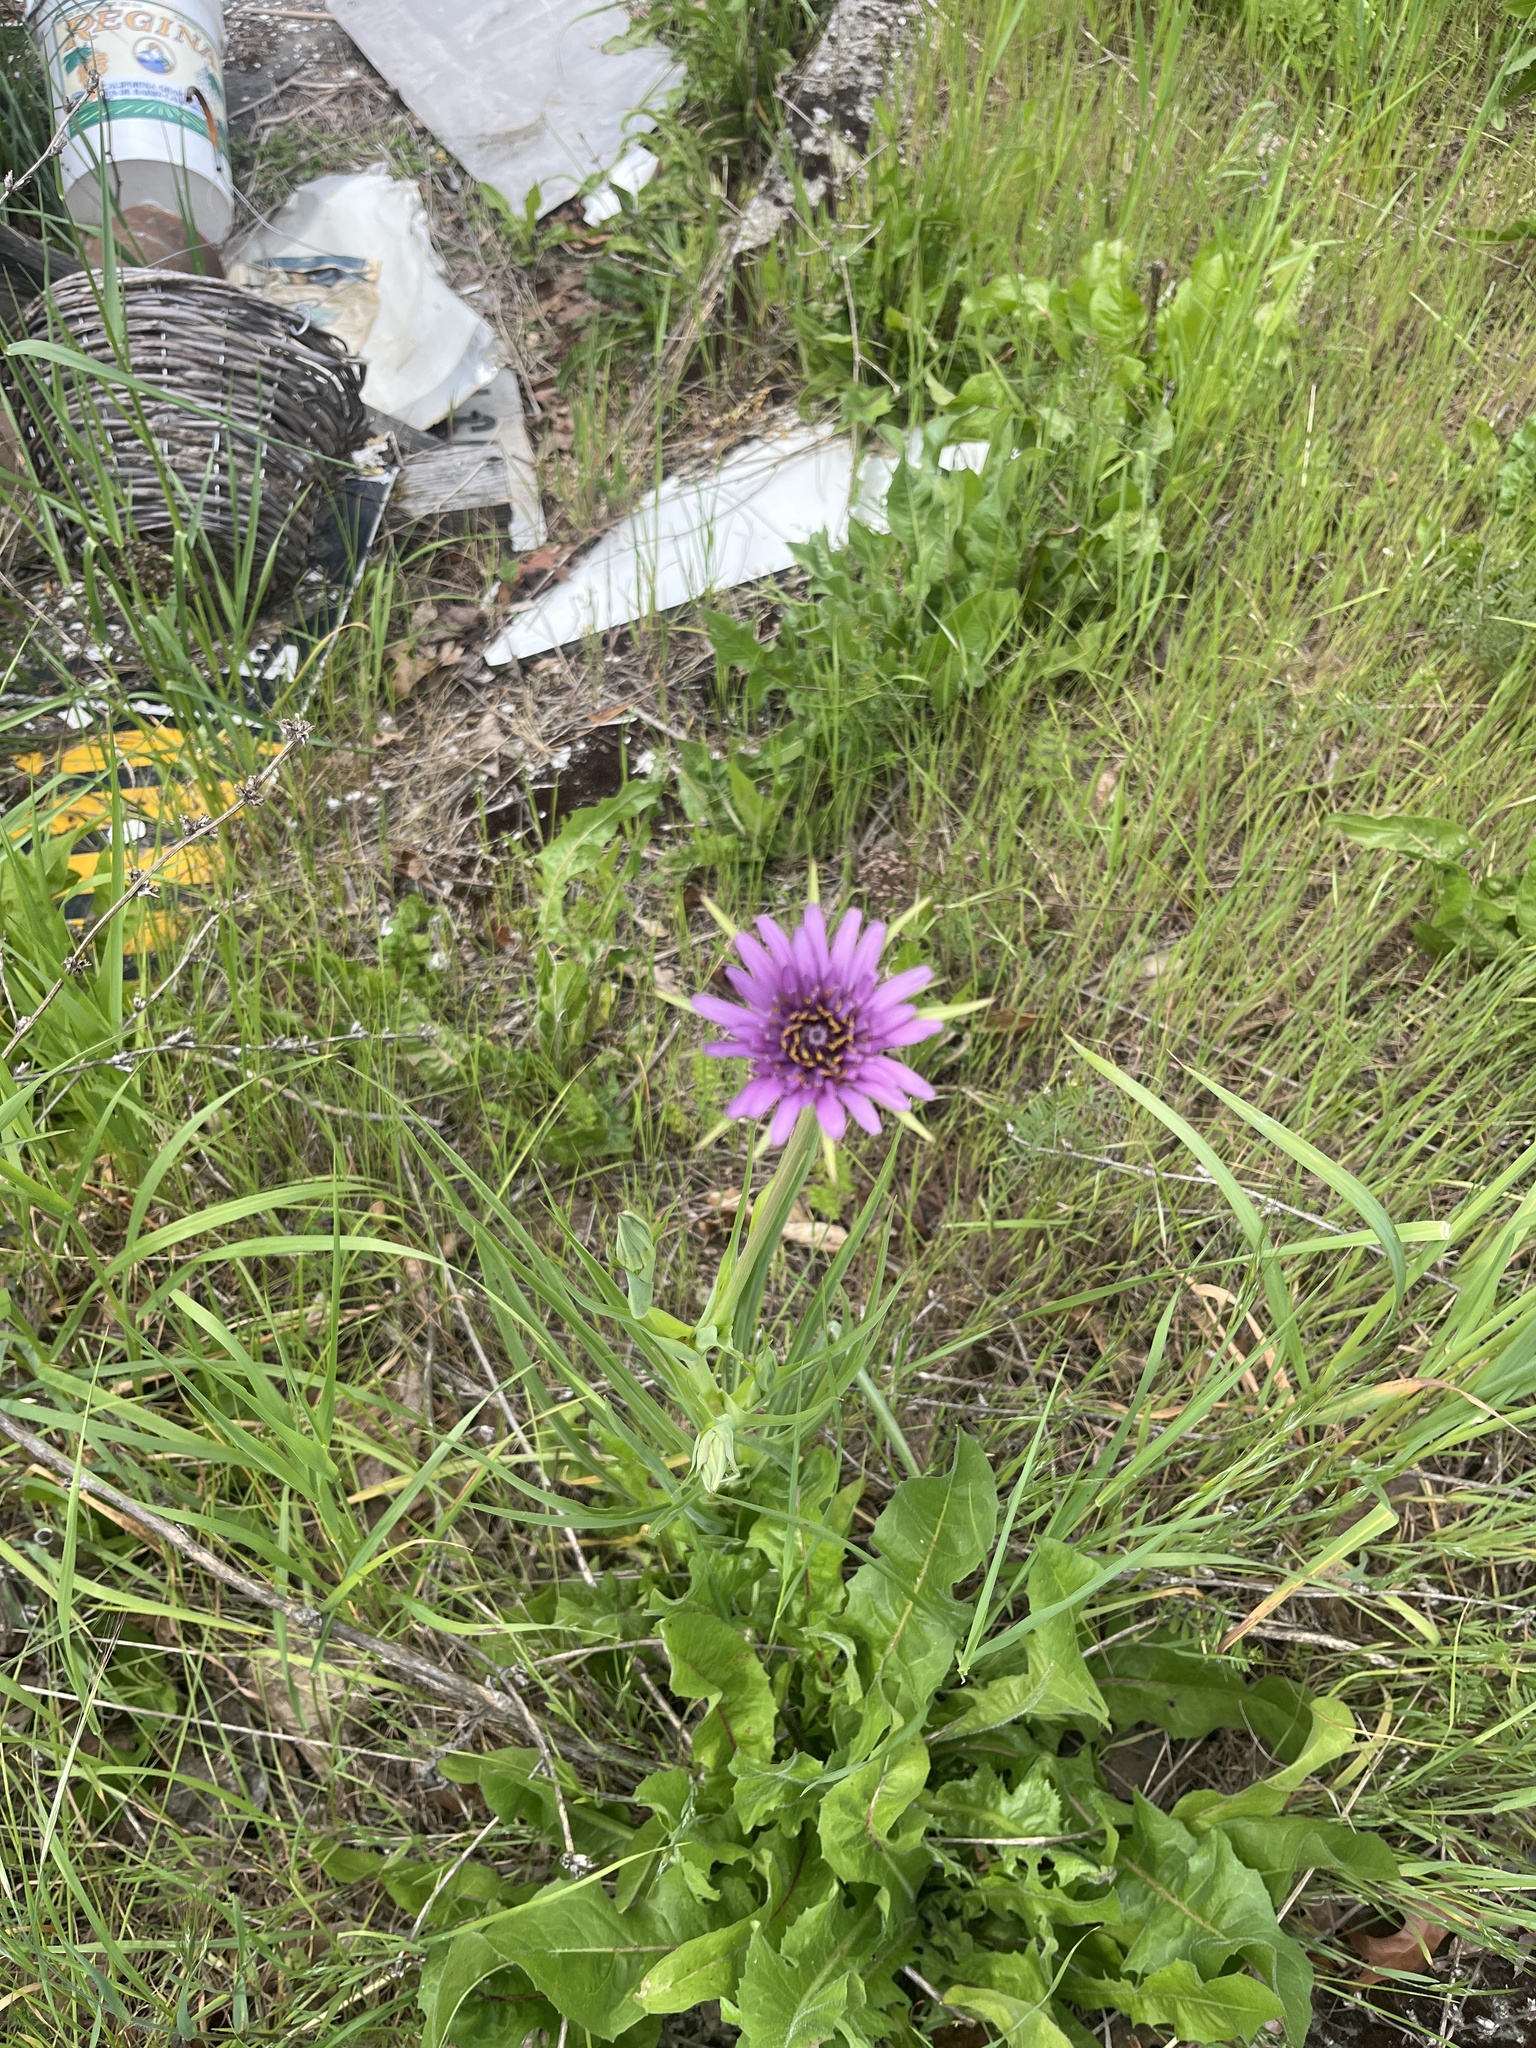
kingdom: Plantae
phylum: Tracheophyta
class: Magnoliopsida
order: Asterales
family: Asteraceae
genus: Tragopogon
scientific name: Tragopogon porrifolius
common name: Salsify
